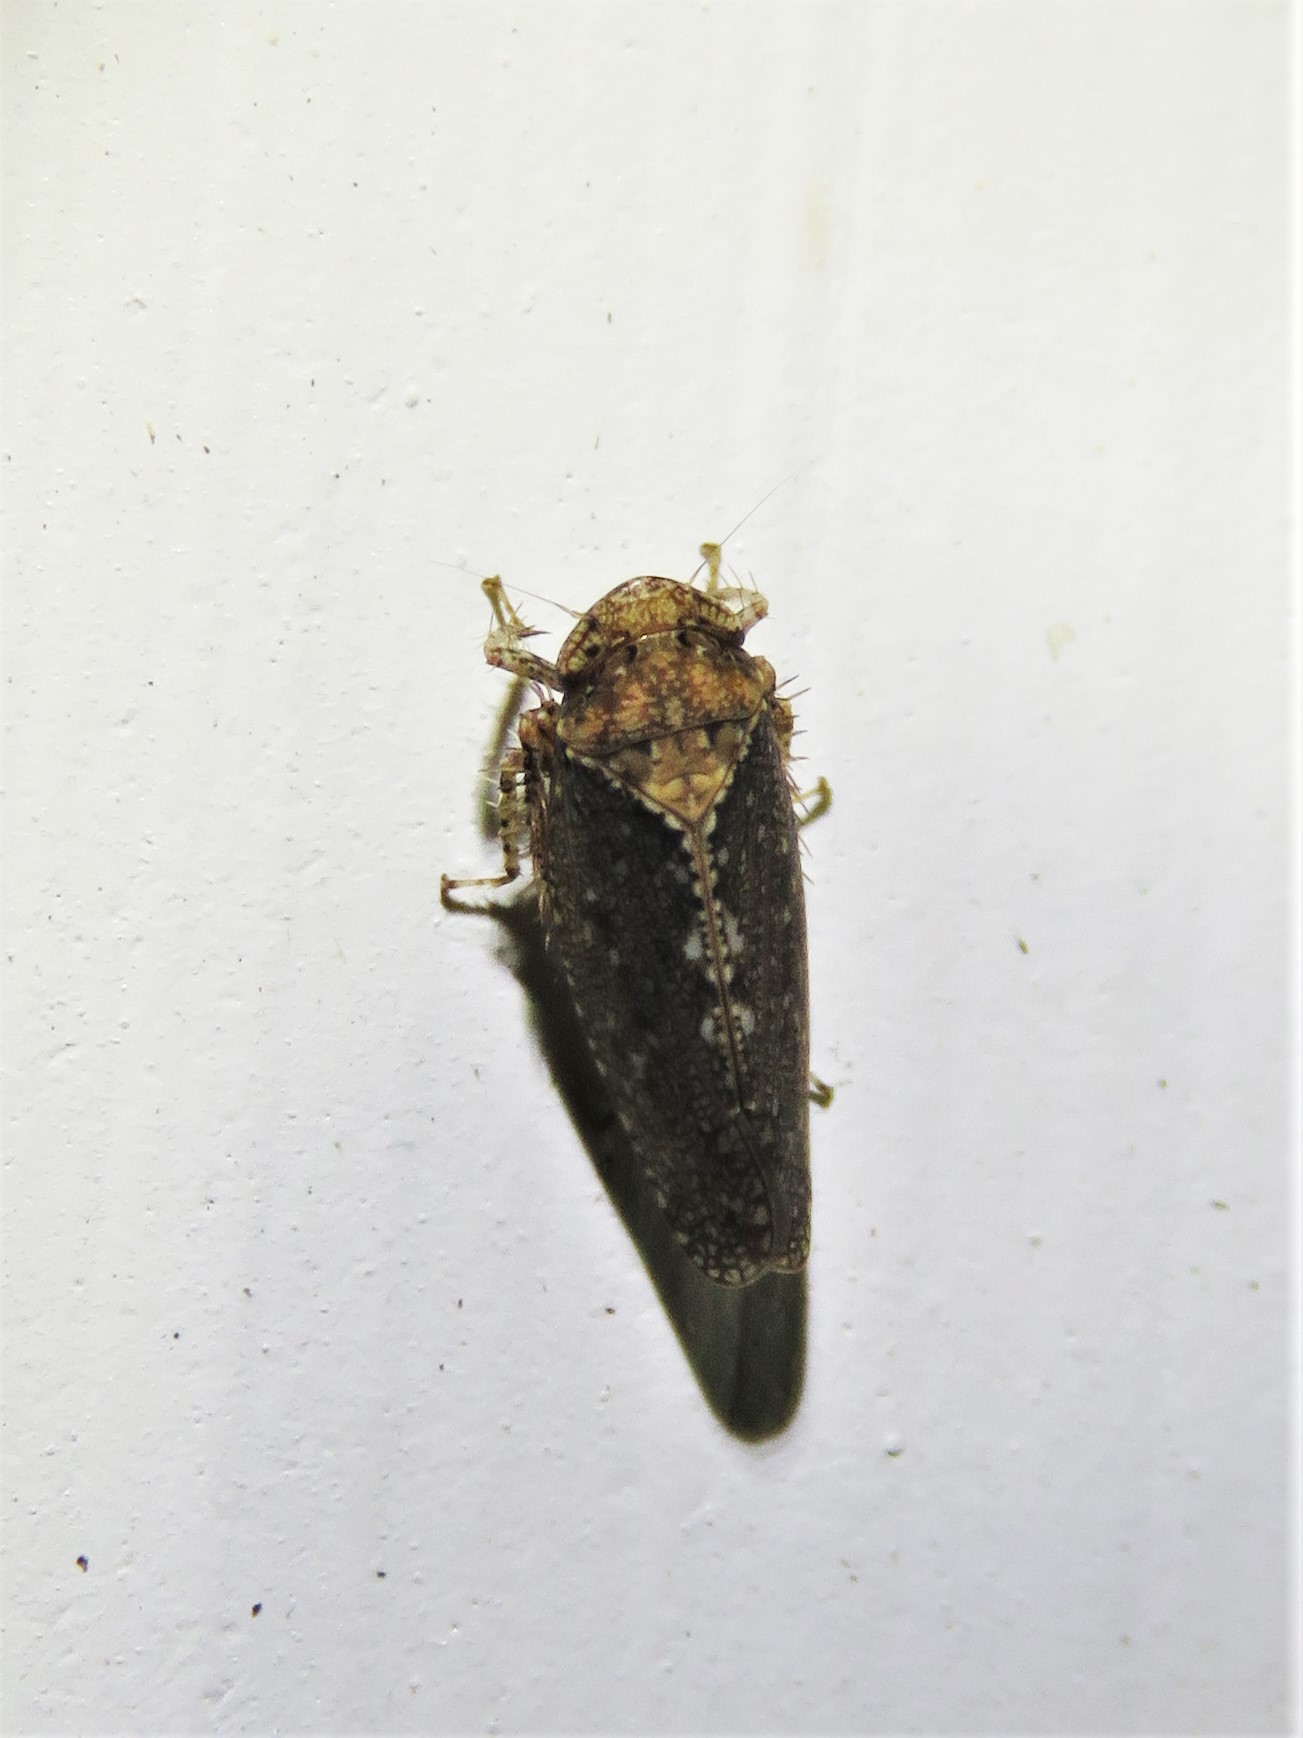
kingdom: Animalia
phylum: Arthropoda
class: Insecta
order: Hemiptera
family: Cicadellidae
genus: Excultanus
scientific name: Excultanus excultus
